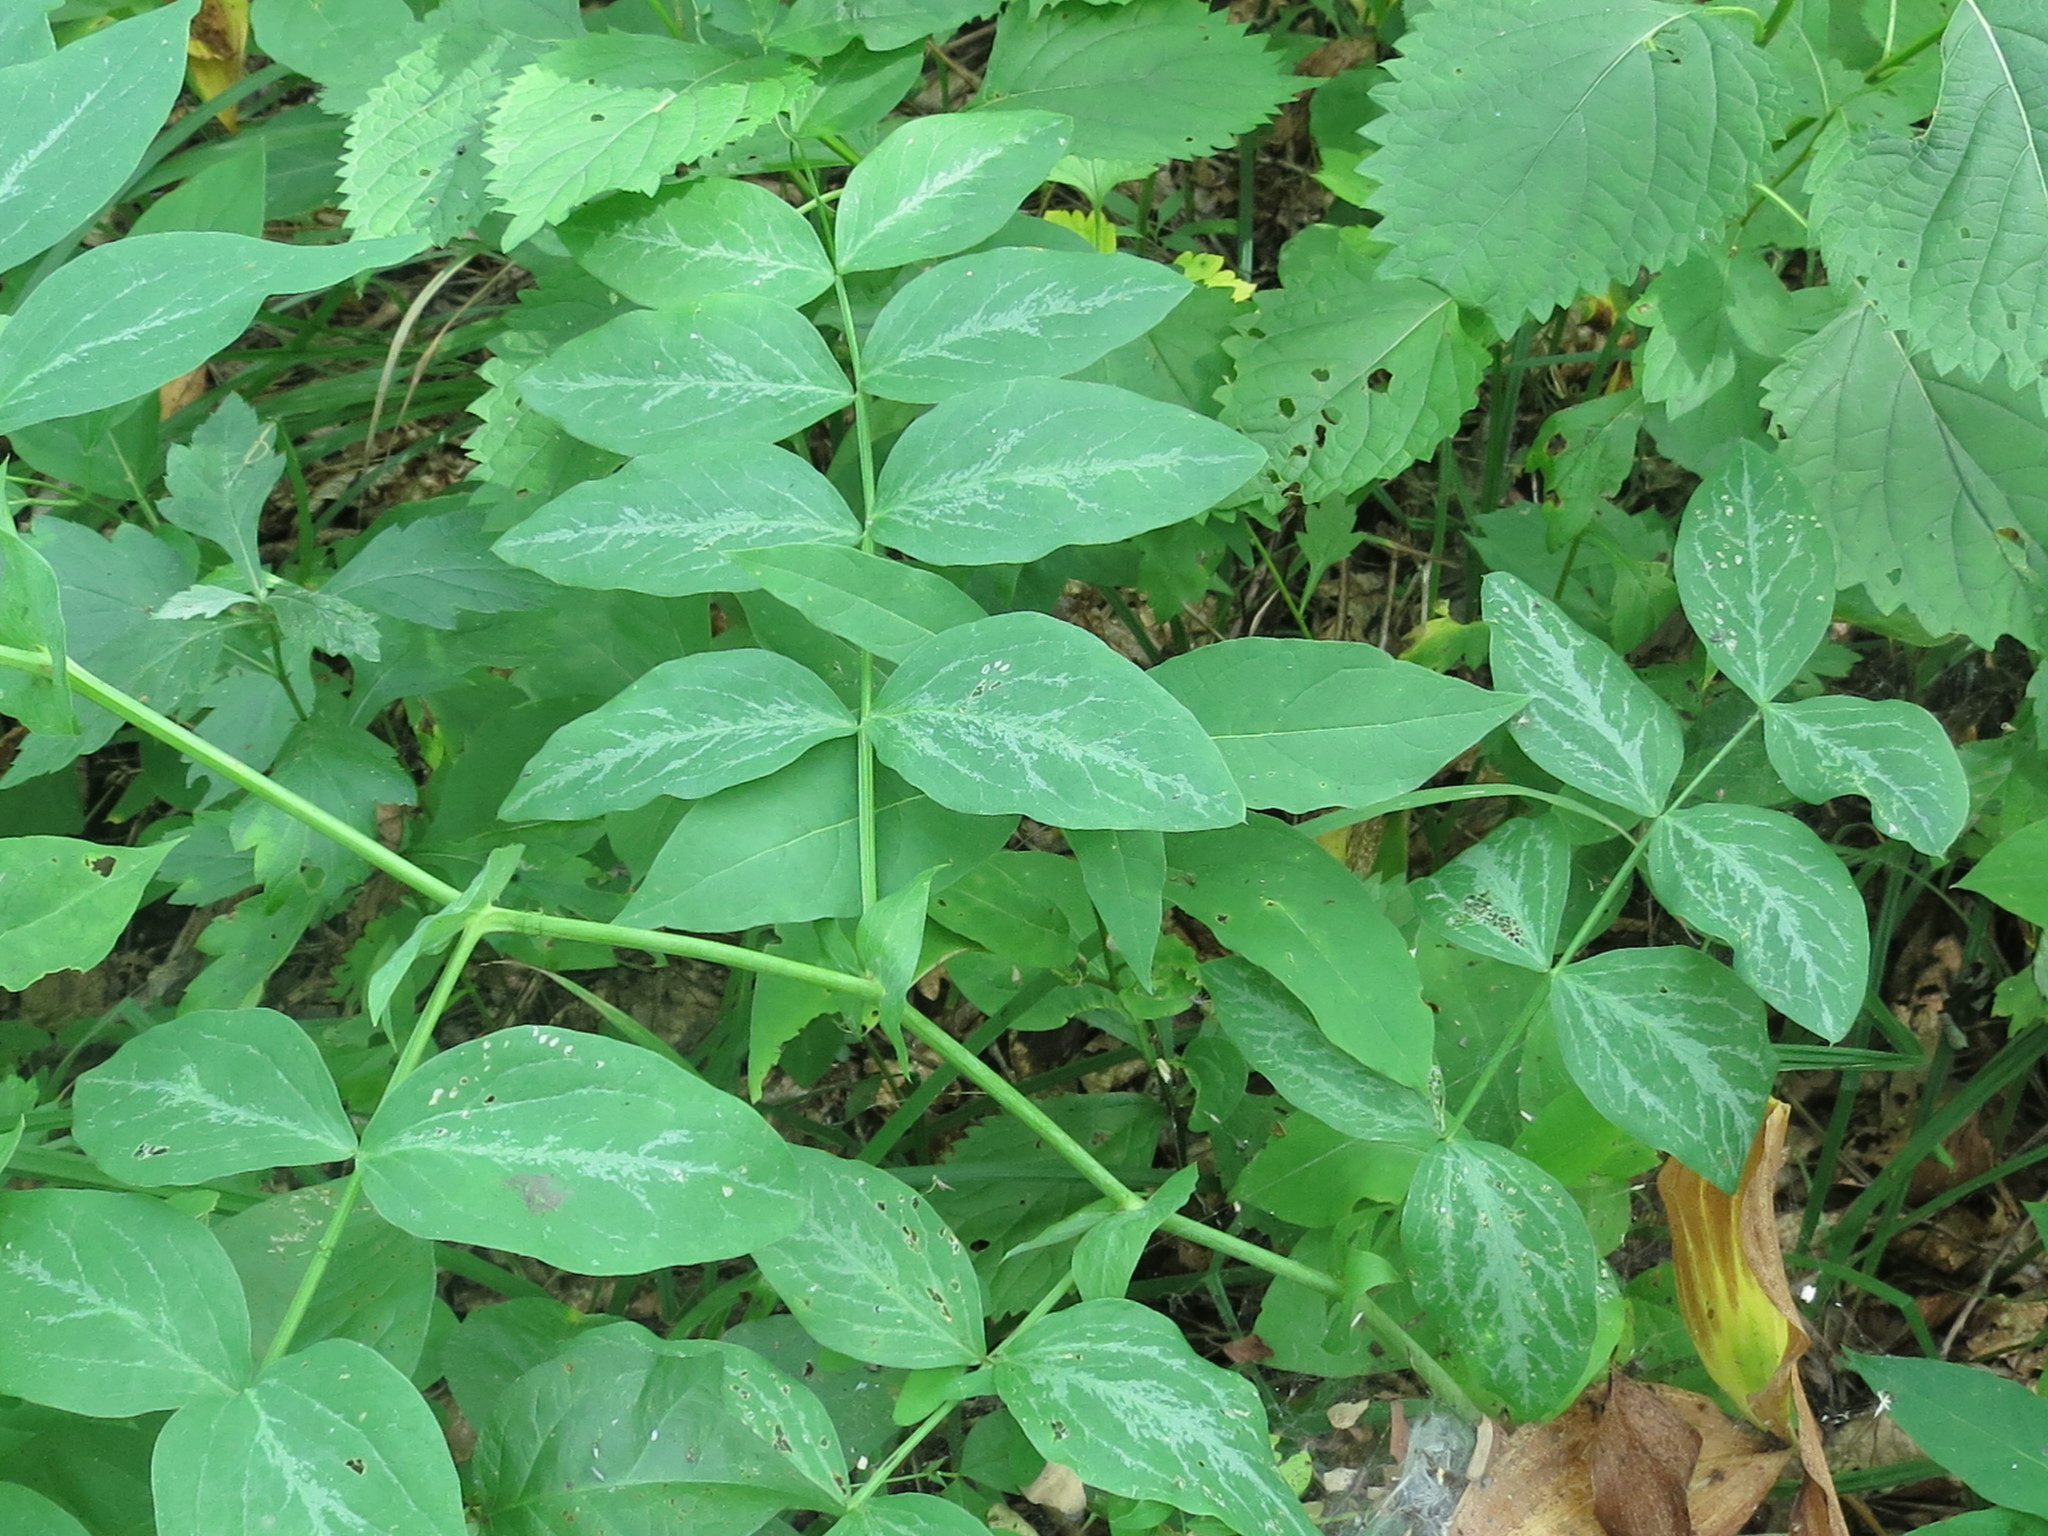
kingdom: Plantae
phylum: Tracheophyta
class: Magnoliopsida
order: Fabales
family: Fabaceae
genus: Lathyrus
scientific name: Lathyrus davidii
